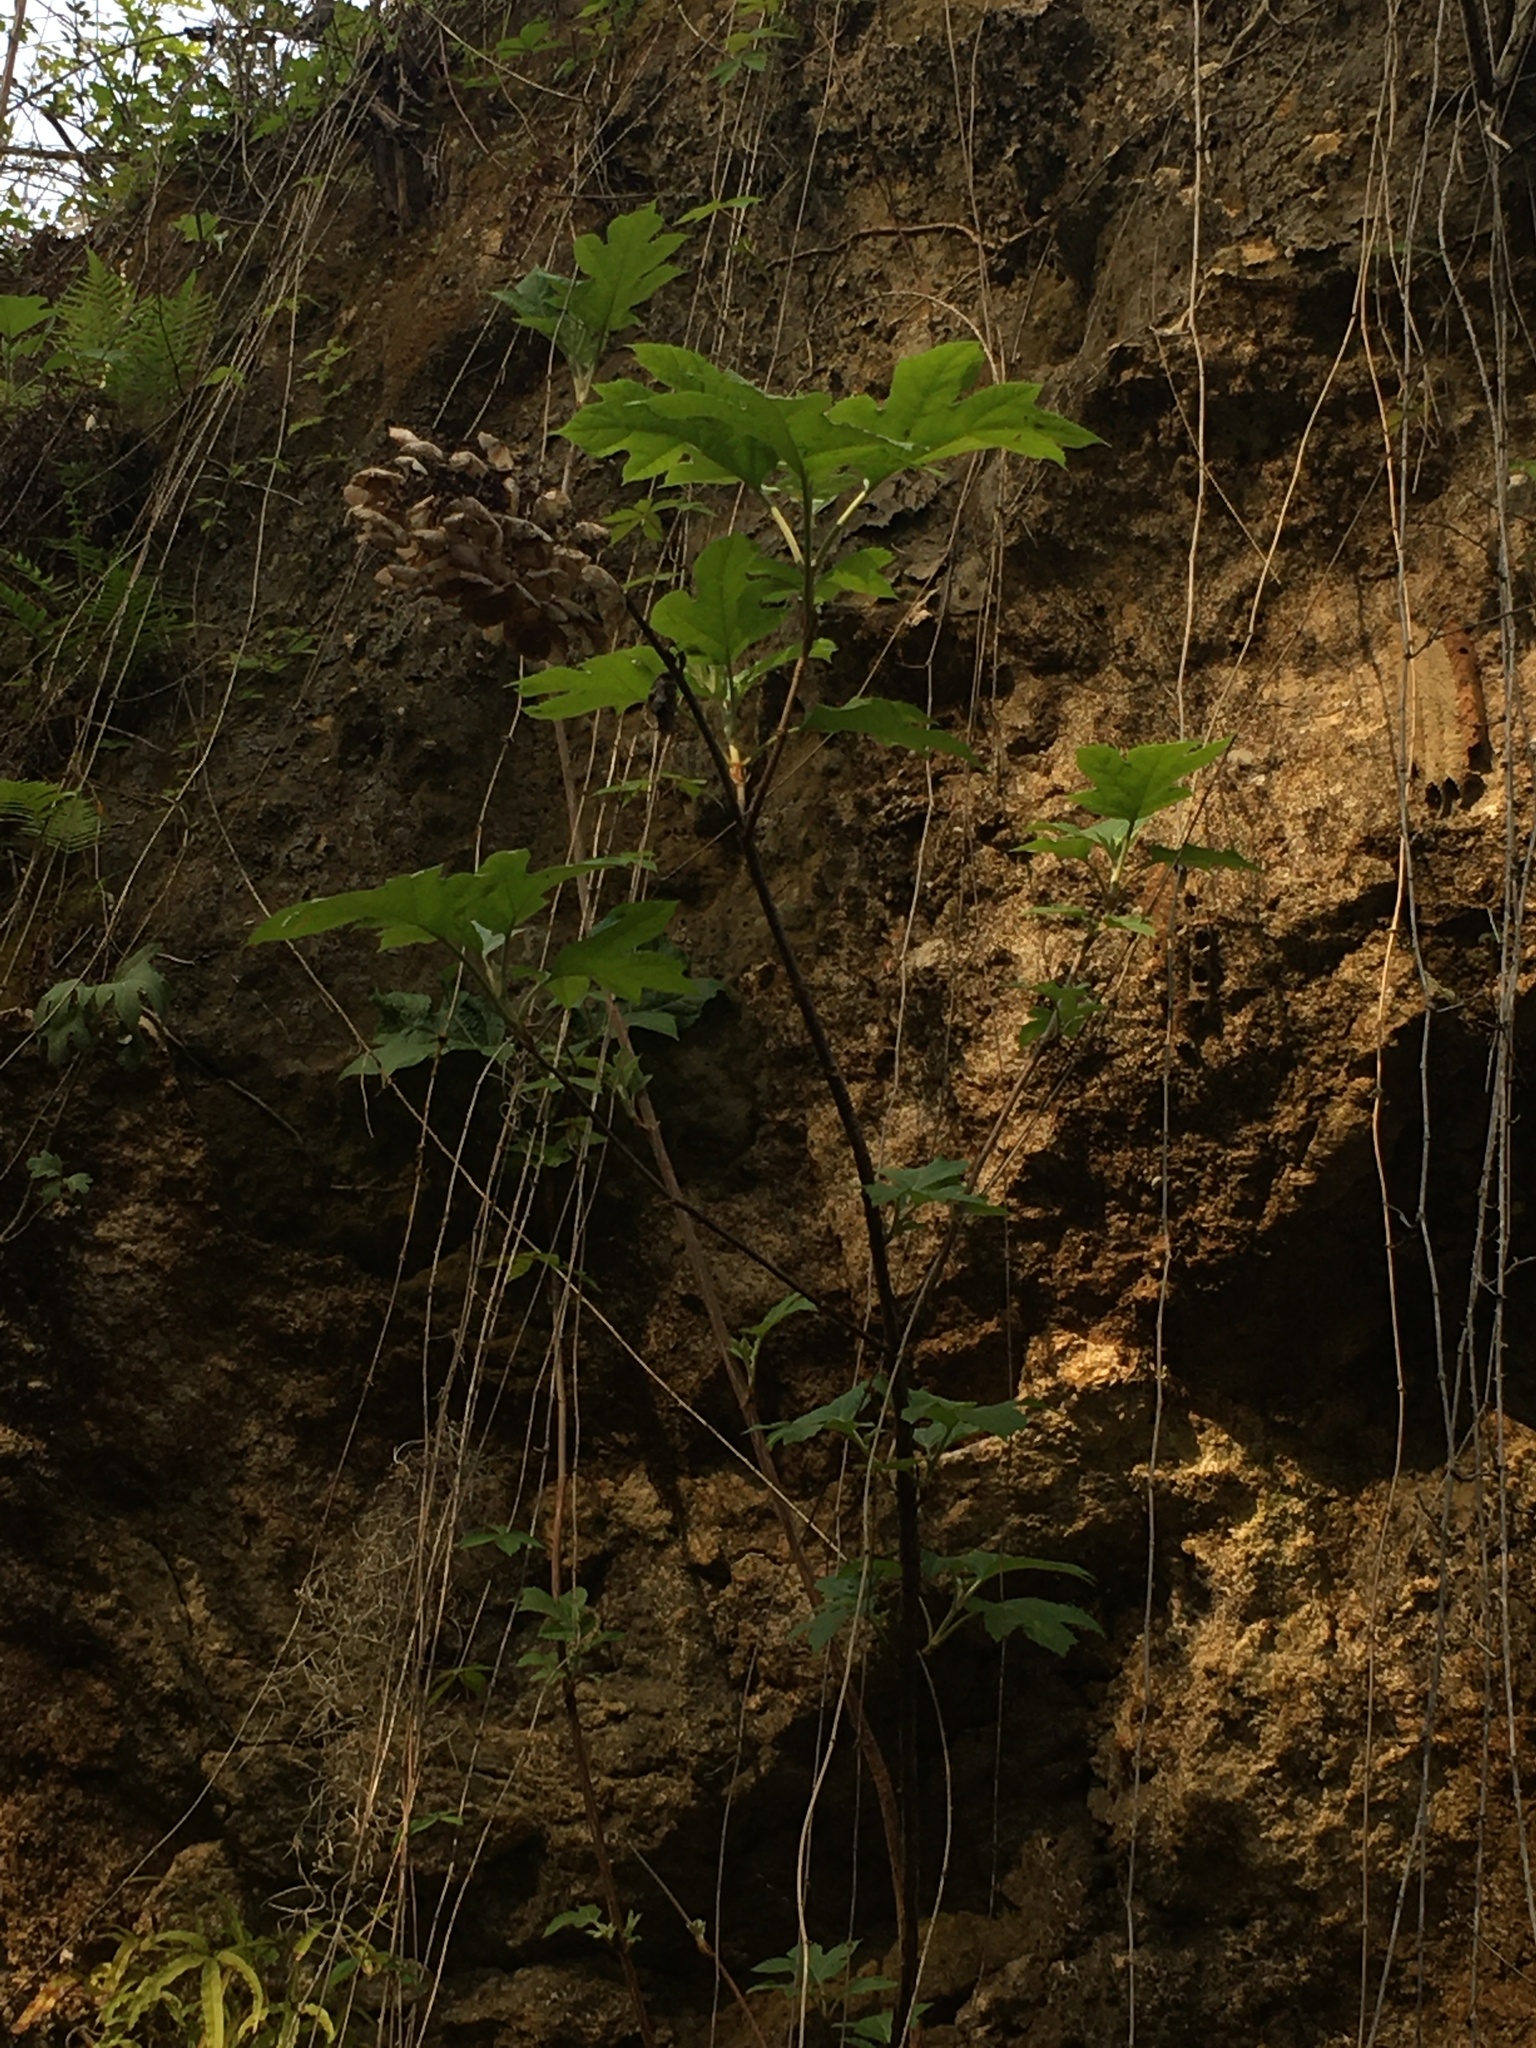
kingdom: Plantae
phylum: Tracheophyta
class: Magnoliopsida
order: Cornales
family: Hydrangeaceae
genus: Hydrangea
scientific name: Hydrangea quercifolia
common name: Oak-leaf hydrangea
